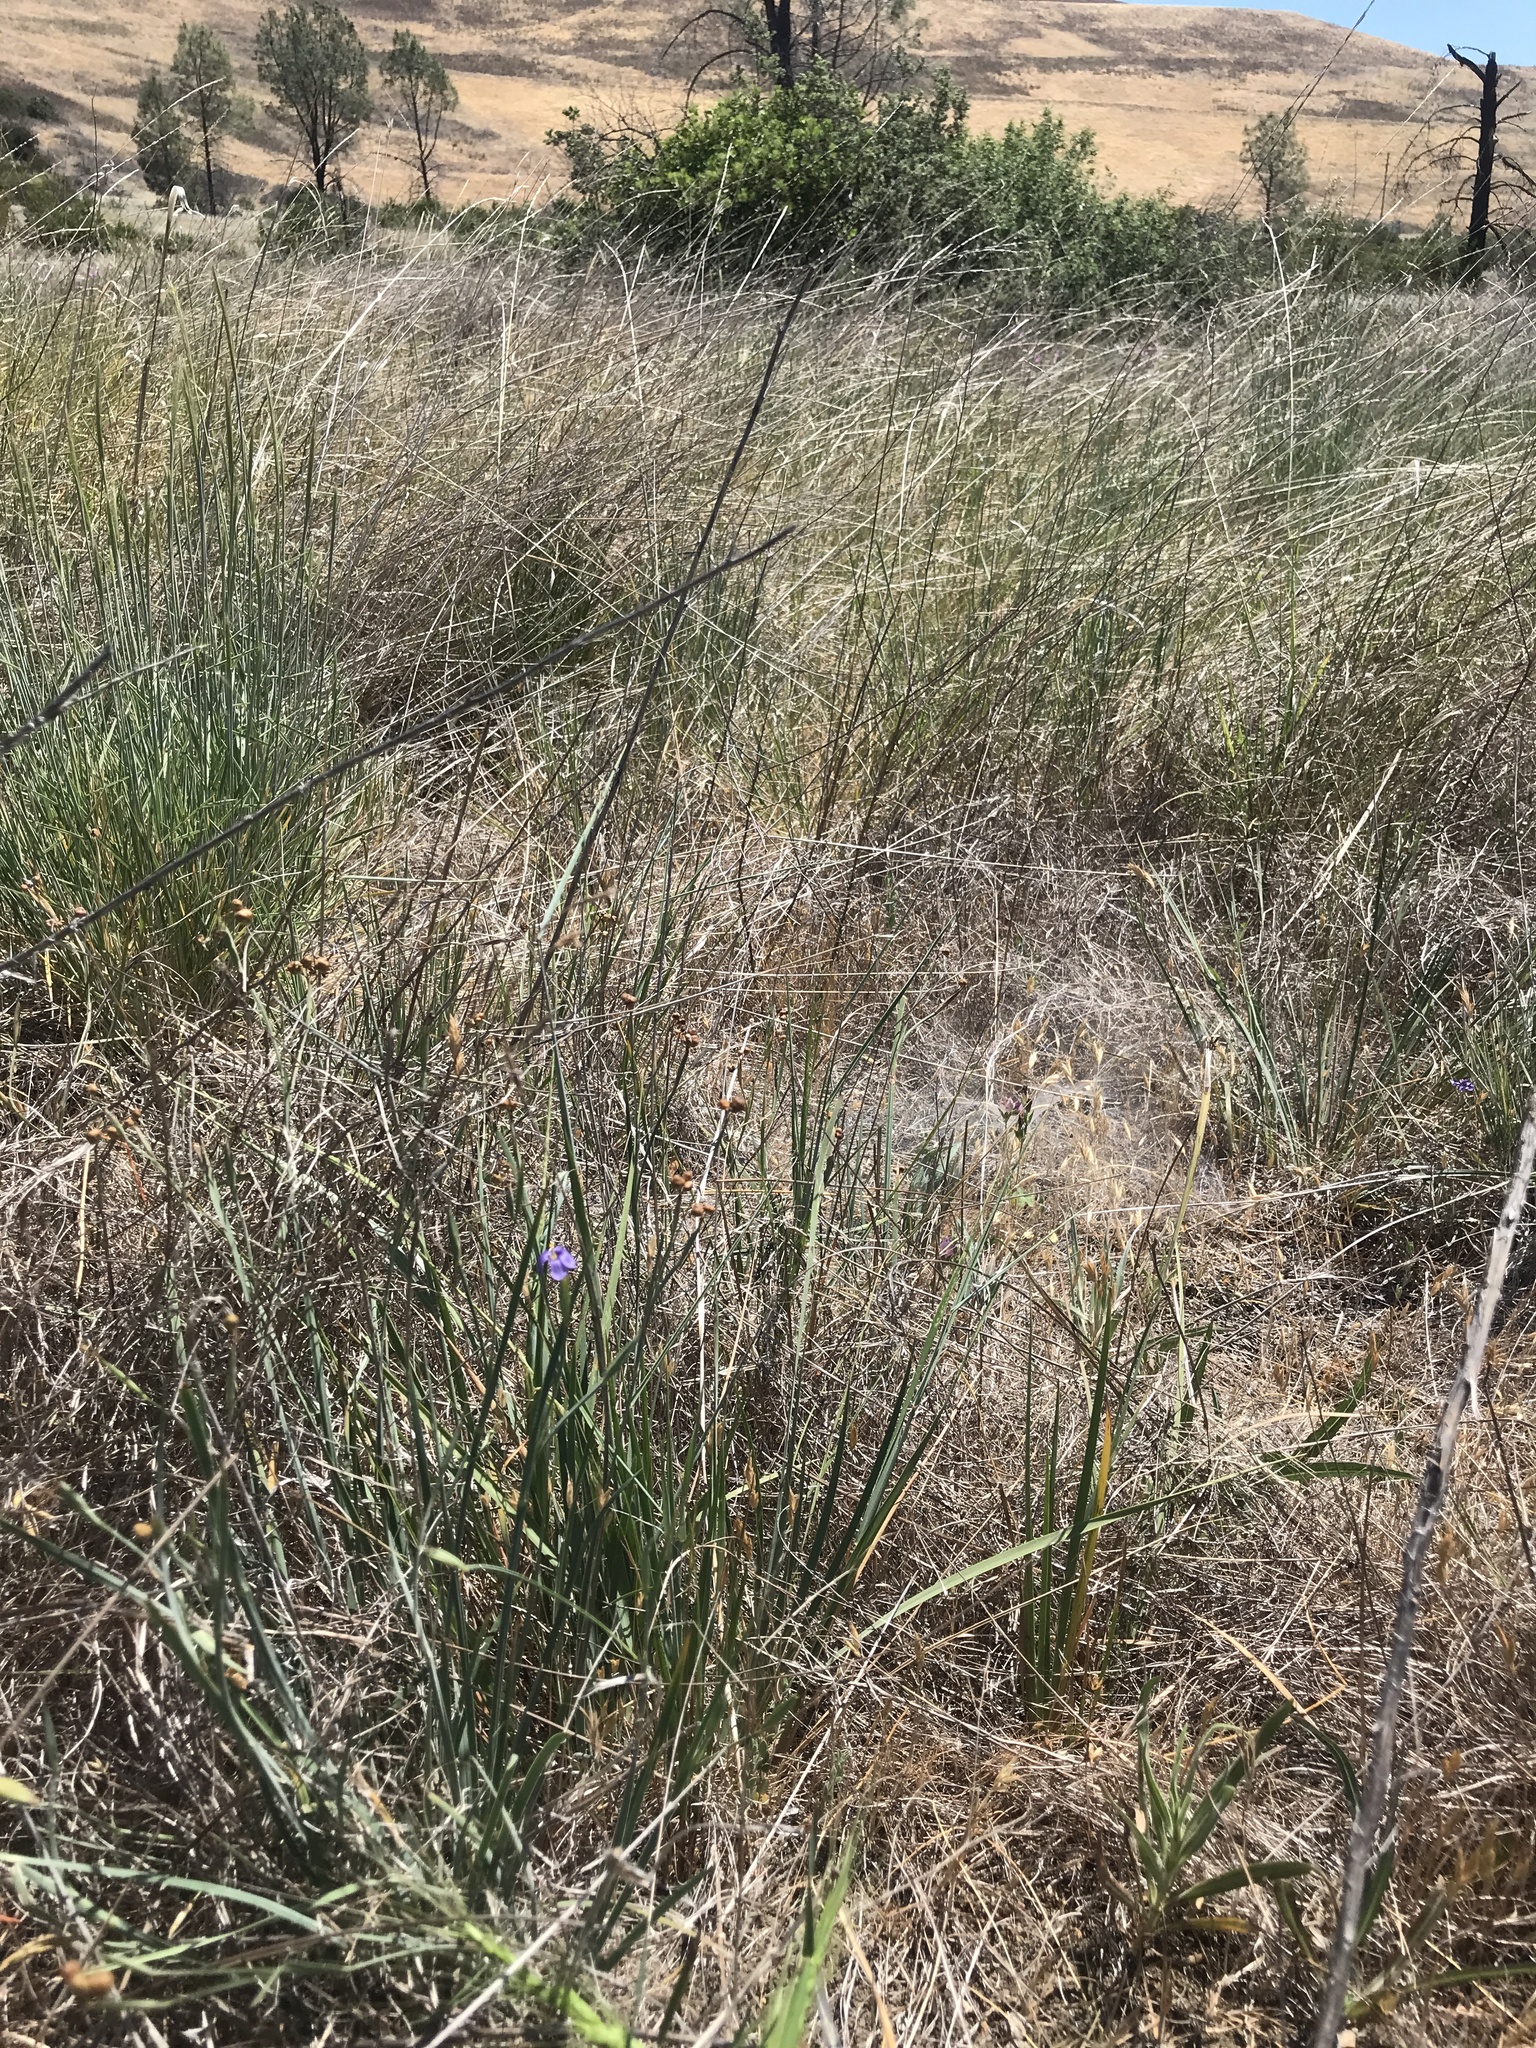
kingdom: Plantae
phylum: Tracheophyta
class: Liliopsida
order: Asparagales
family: Iridaceae
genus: Sisyrinchium
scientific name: Sisyrinchium bellum
